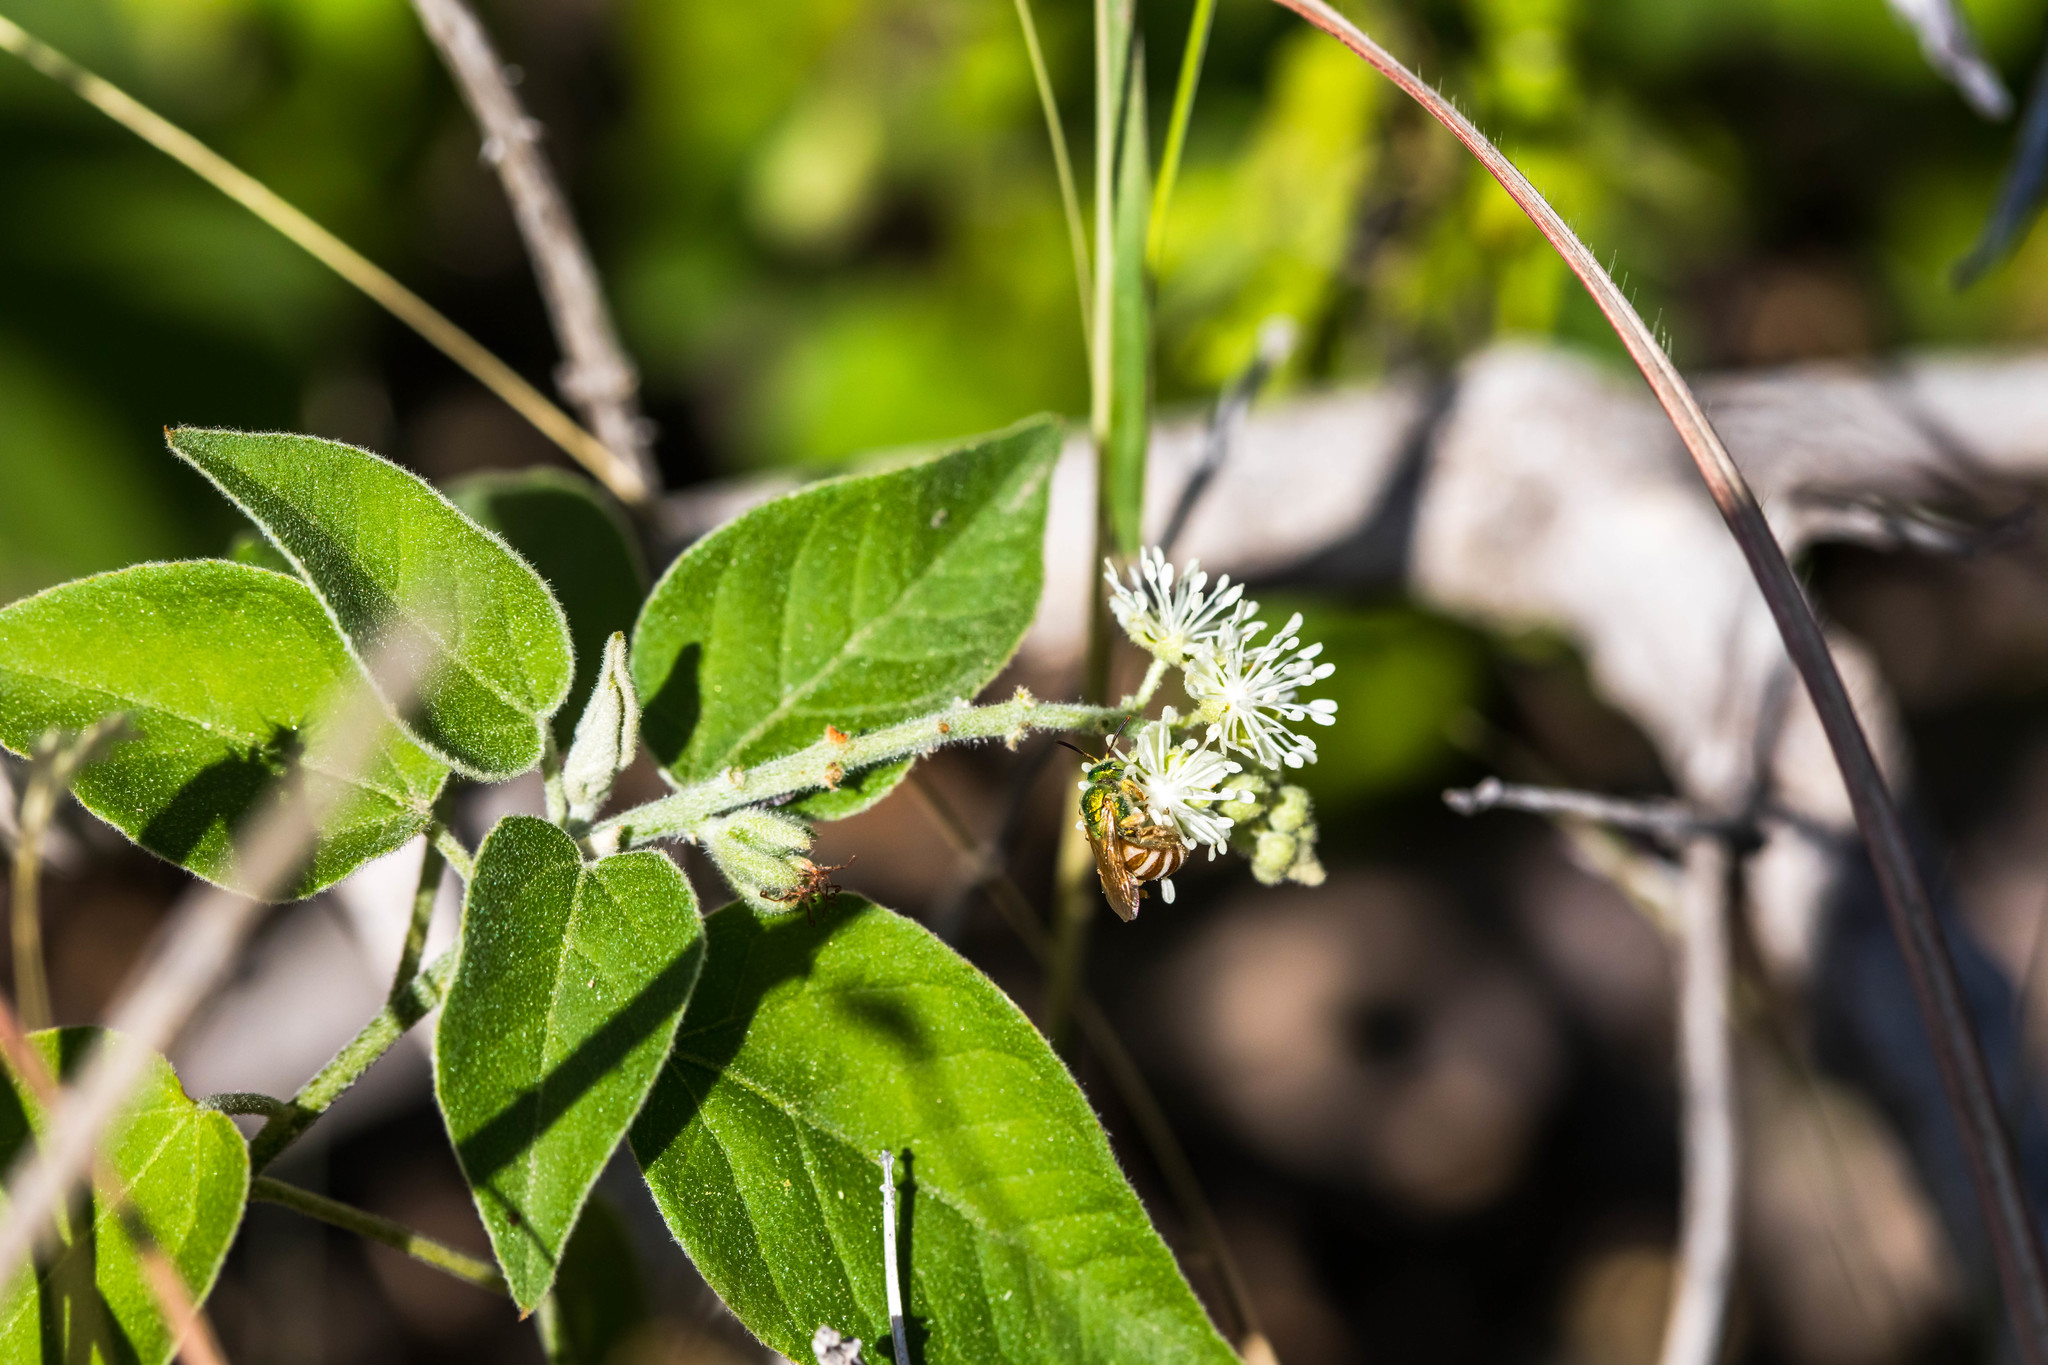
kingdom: Animalia
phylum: Arthropoda
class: Insecta
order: Hymenoptera
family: Halictidae
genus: Agapostemon
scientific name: Agapostemon melliventris
